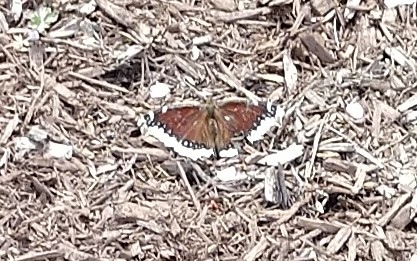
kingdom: Animalia
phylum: Arthropoda
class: Insecta
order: Lepidoptera
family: Nymphalidae
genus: Nymphalis
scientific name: Nymphalis antiopa
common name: Camberwell beauty
